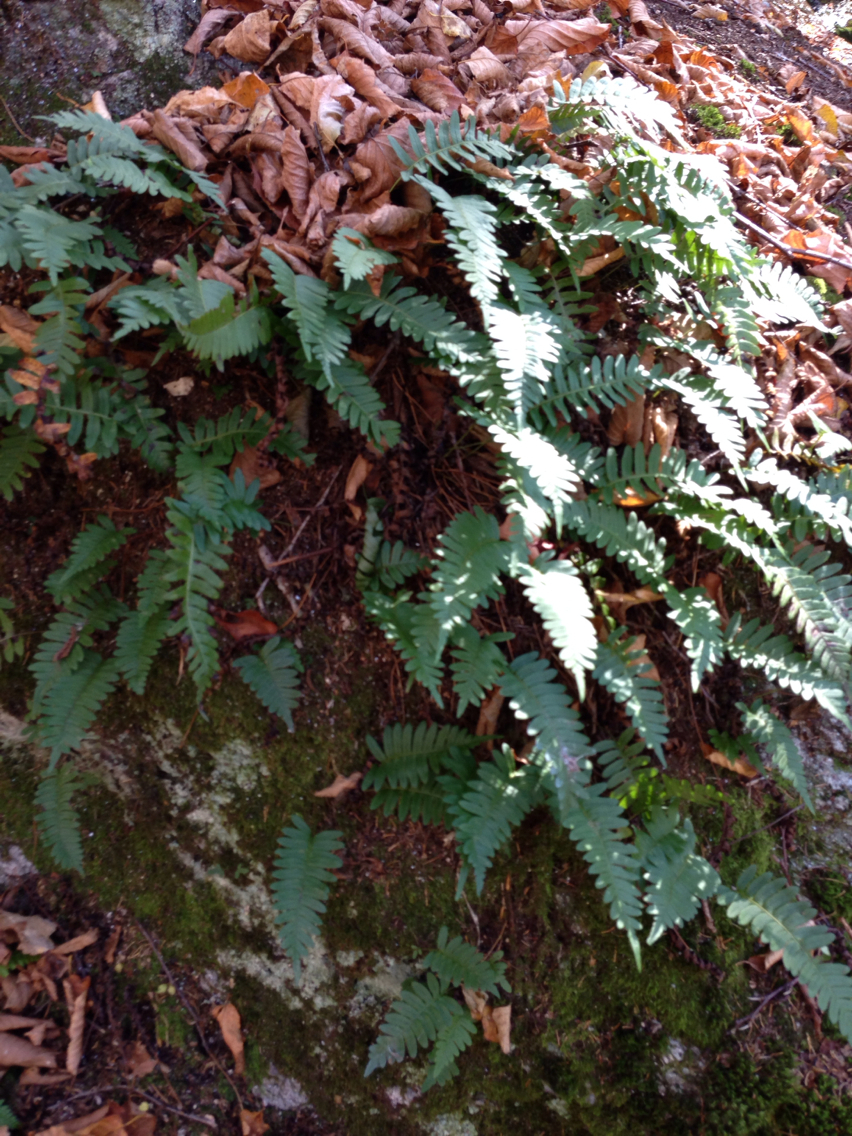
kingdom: Plantae
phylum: Tracheophyta
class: Polypodiopsida
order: Polypodiales
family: Polypodiaceae
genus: Polypodium
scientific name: Polypodium virginianum
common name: American wall fern
